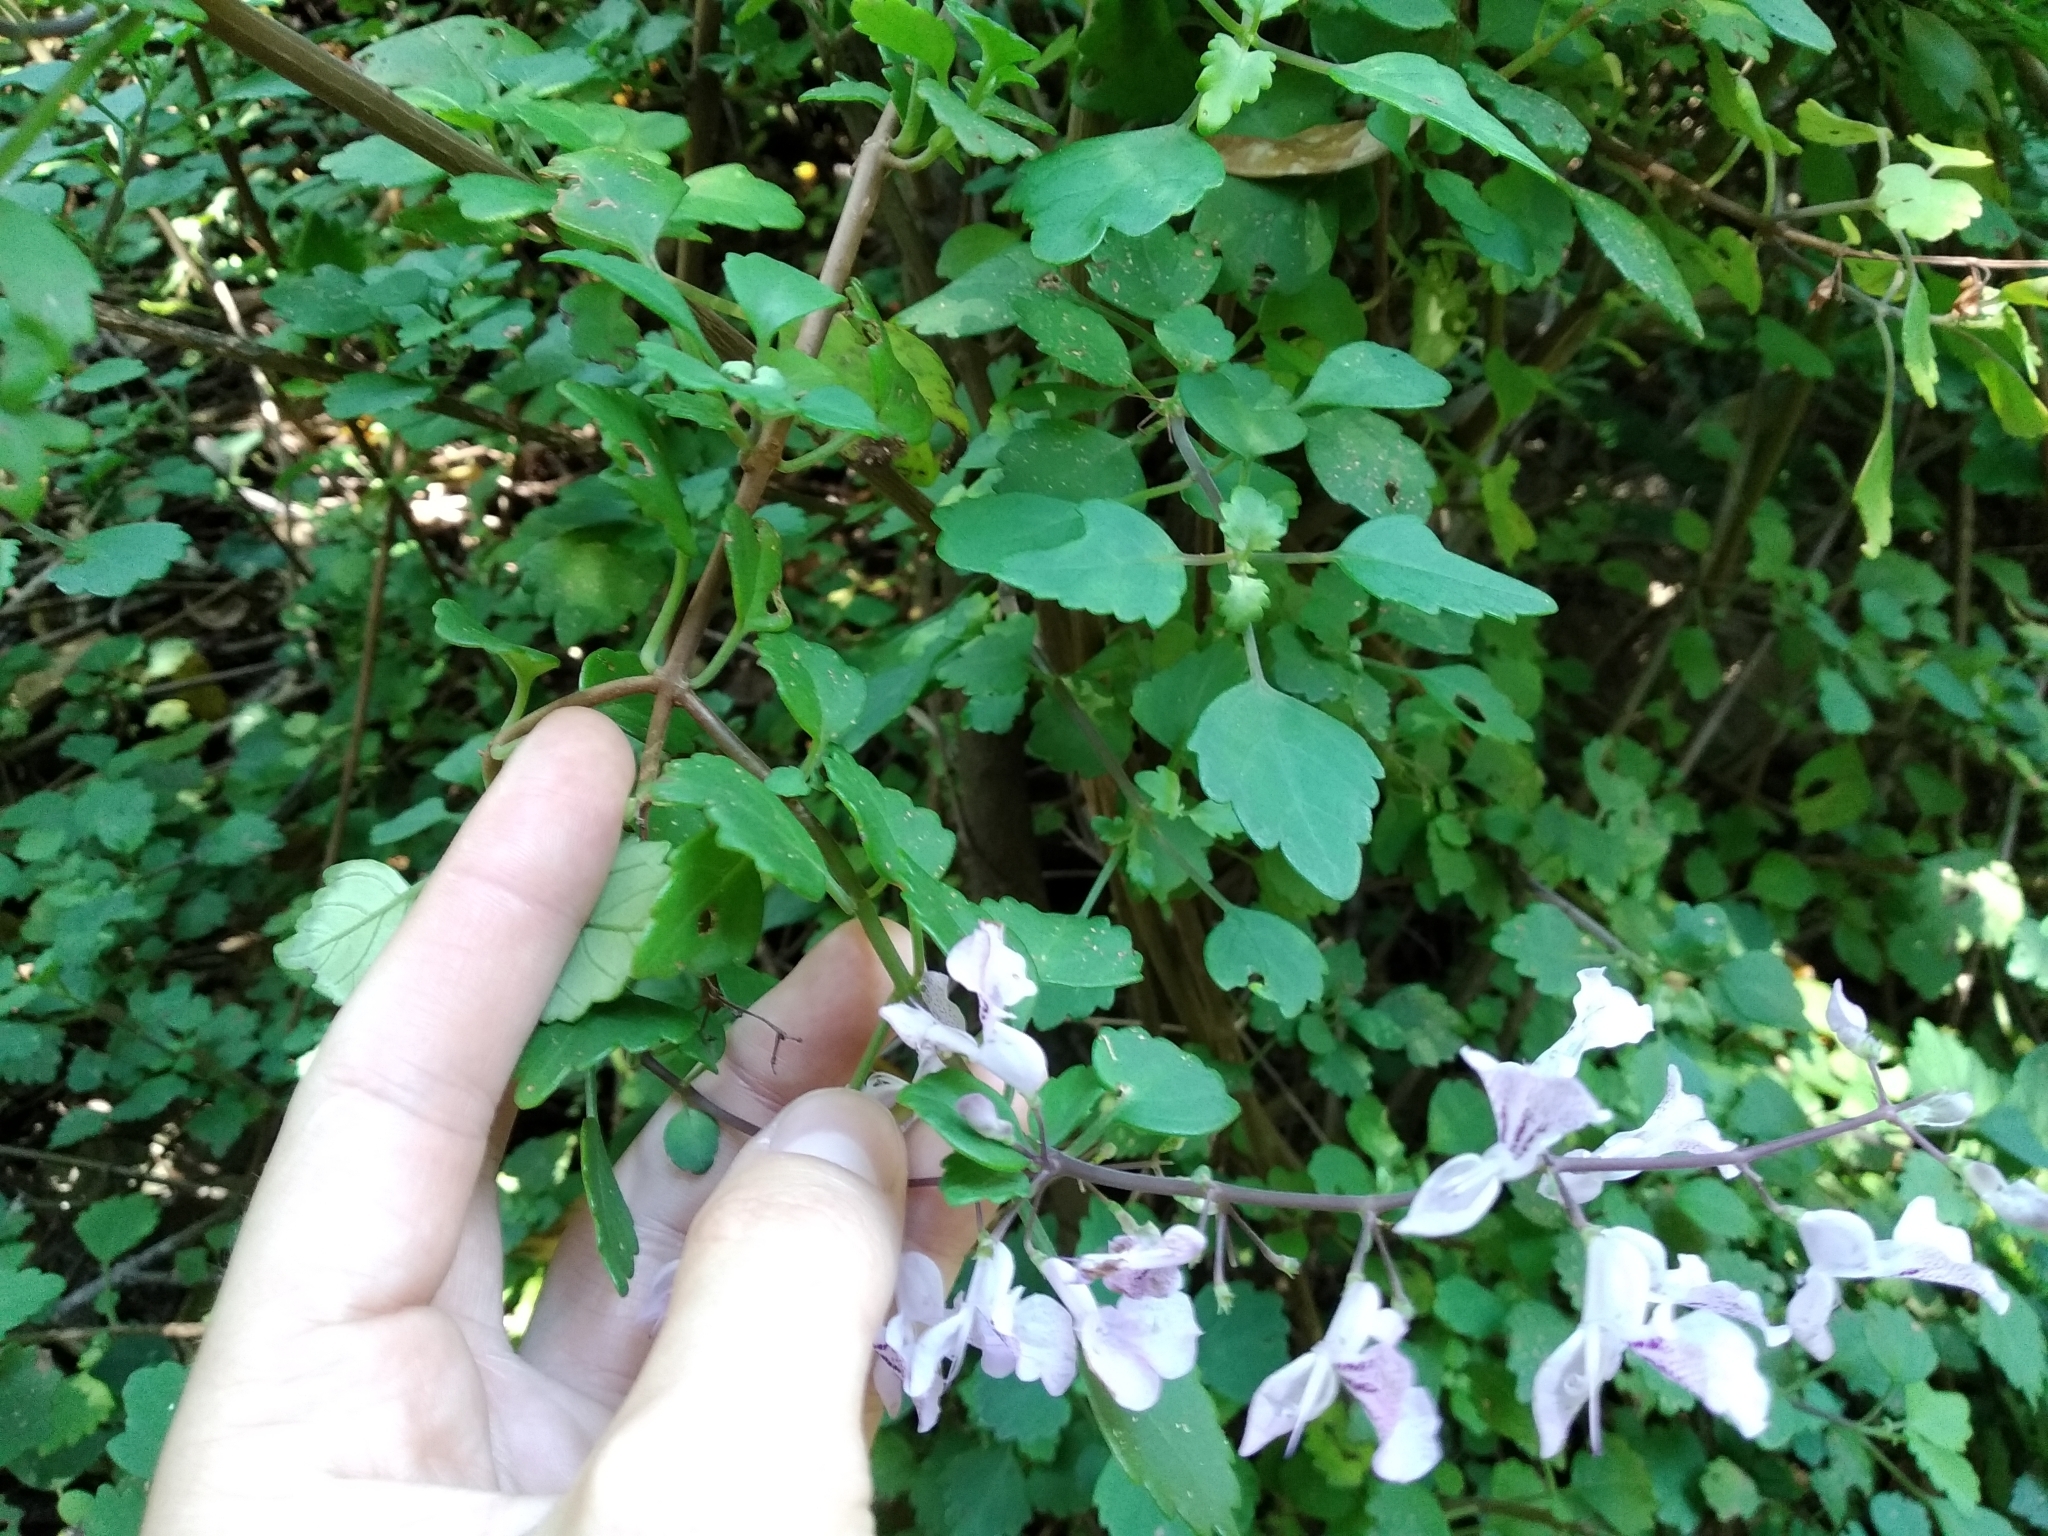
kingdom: Plantae
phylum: Tracheophyta
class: Magnoliopsida
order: Lamiales
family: Lamiaceae
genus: Plectranthus
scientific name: Plectranthus saccatus
